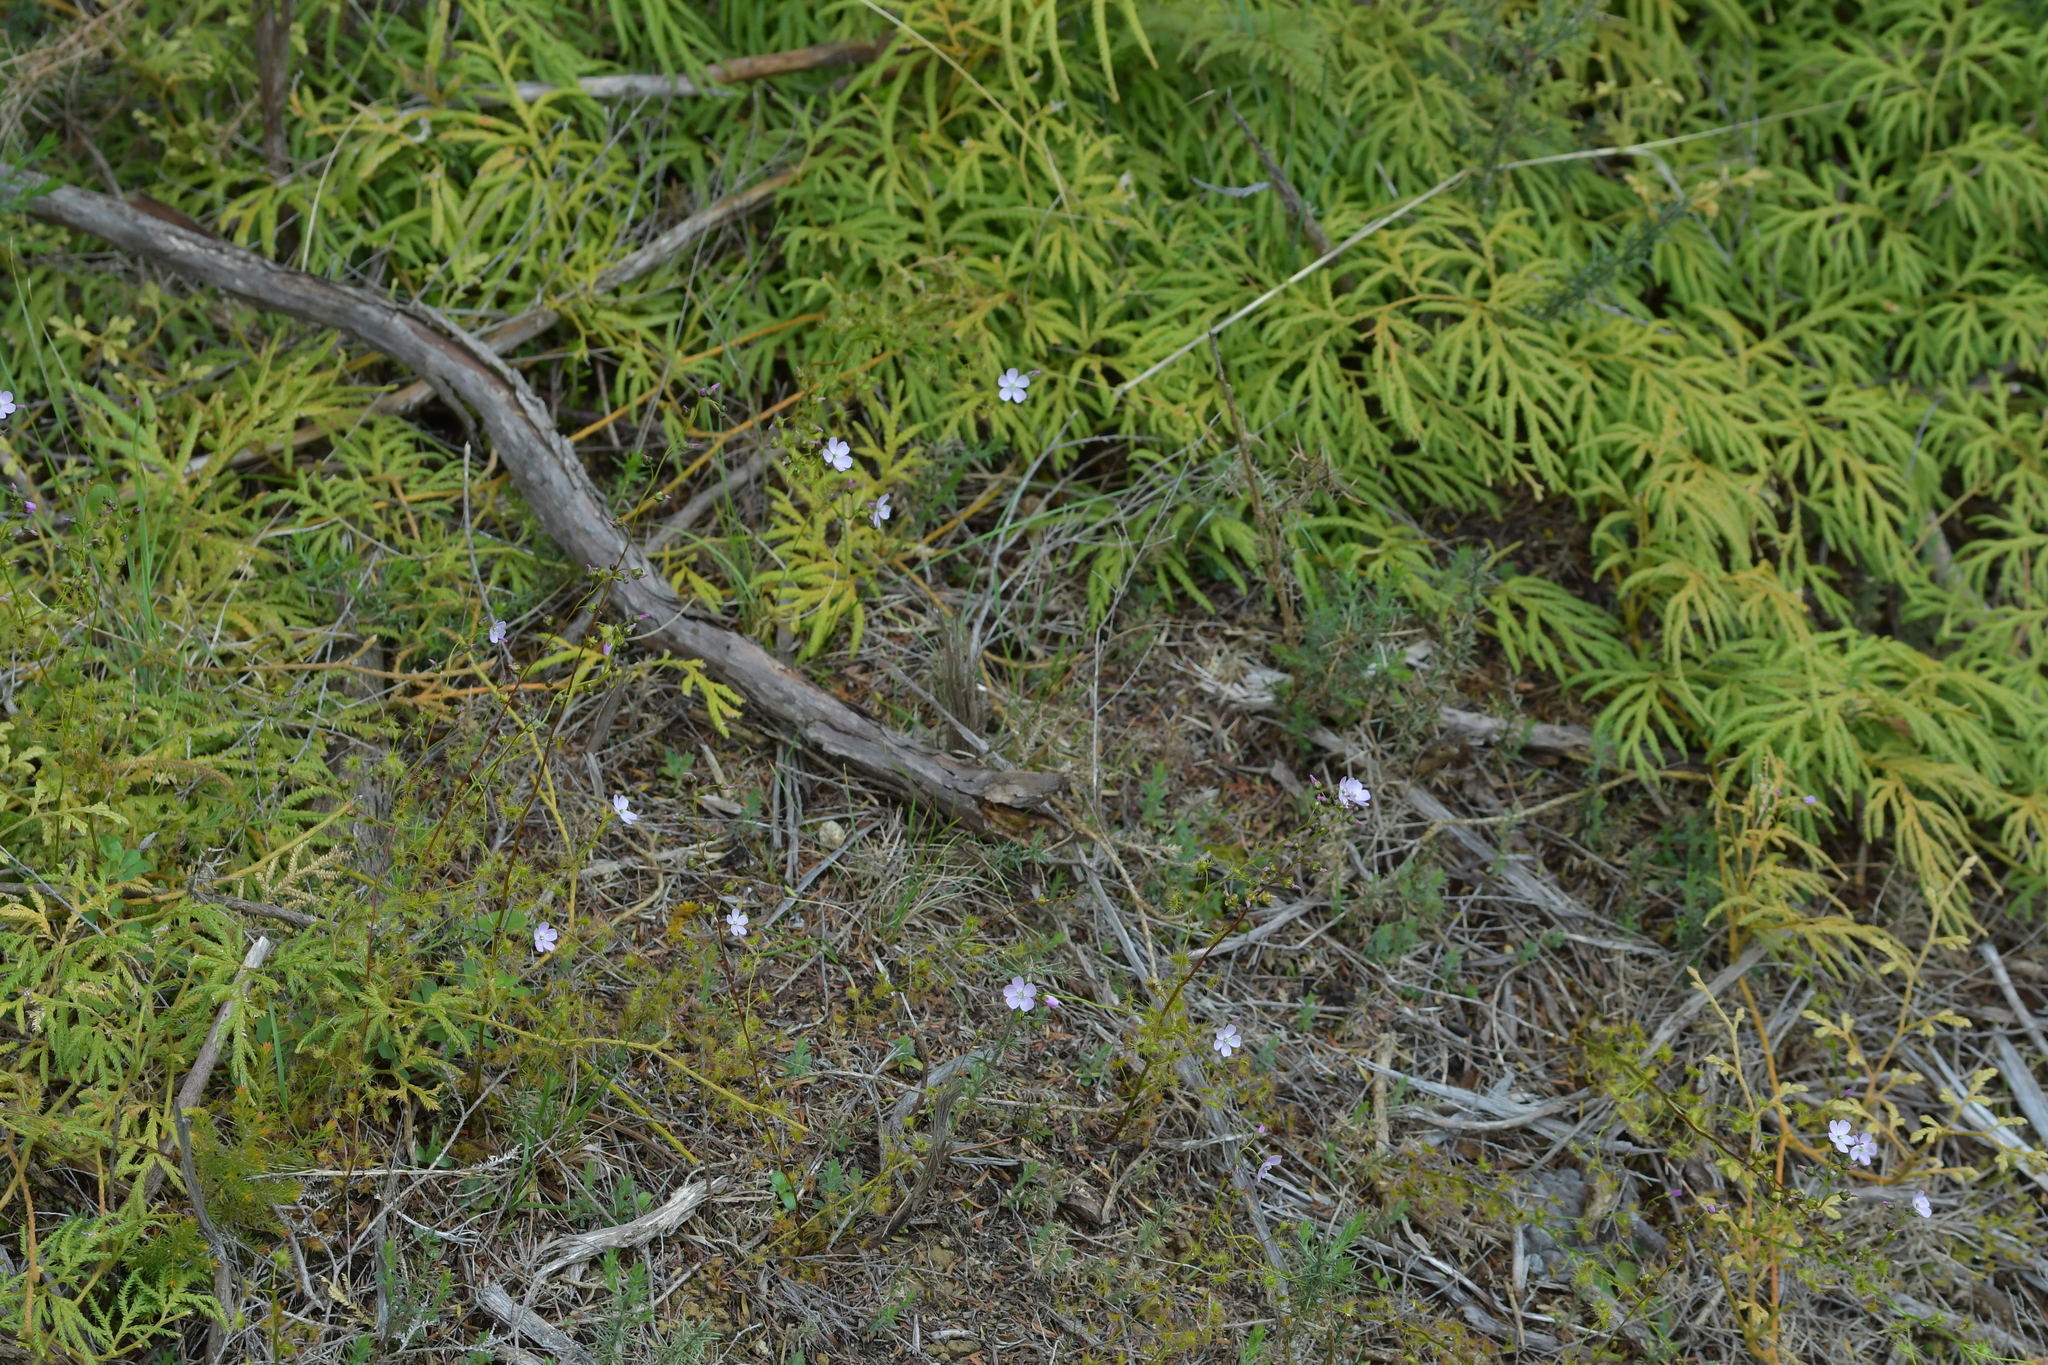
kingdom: Plantae
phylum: Tracheophyta
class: Magnoliopsida
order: Caryophyllales
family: Droseraceae
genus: Drosera
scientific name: Drosera peltata
